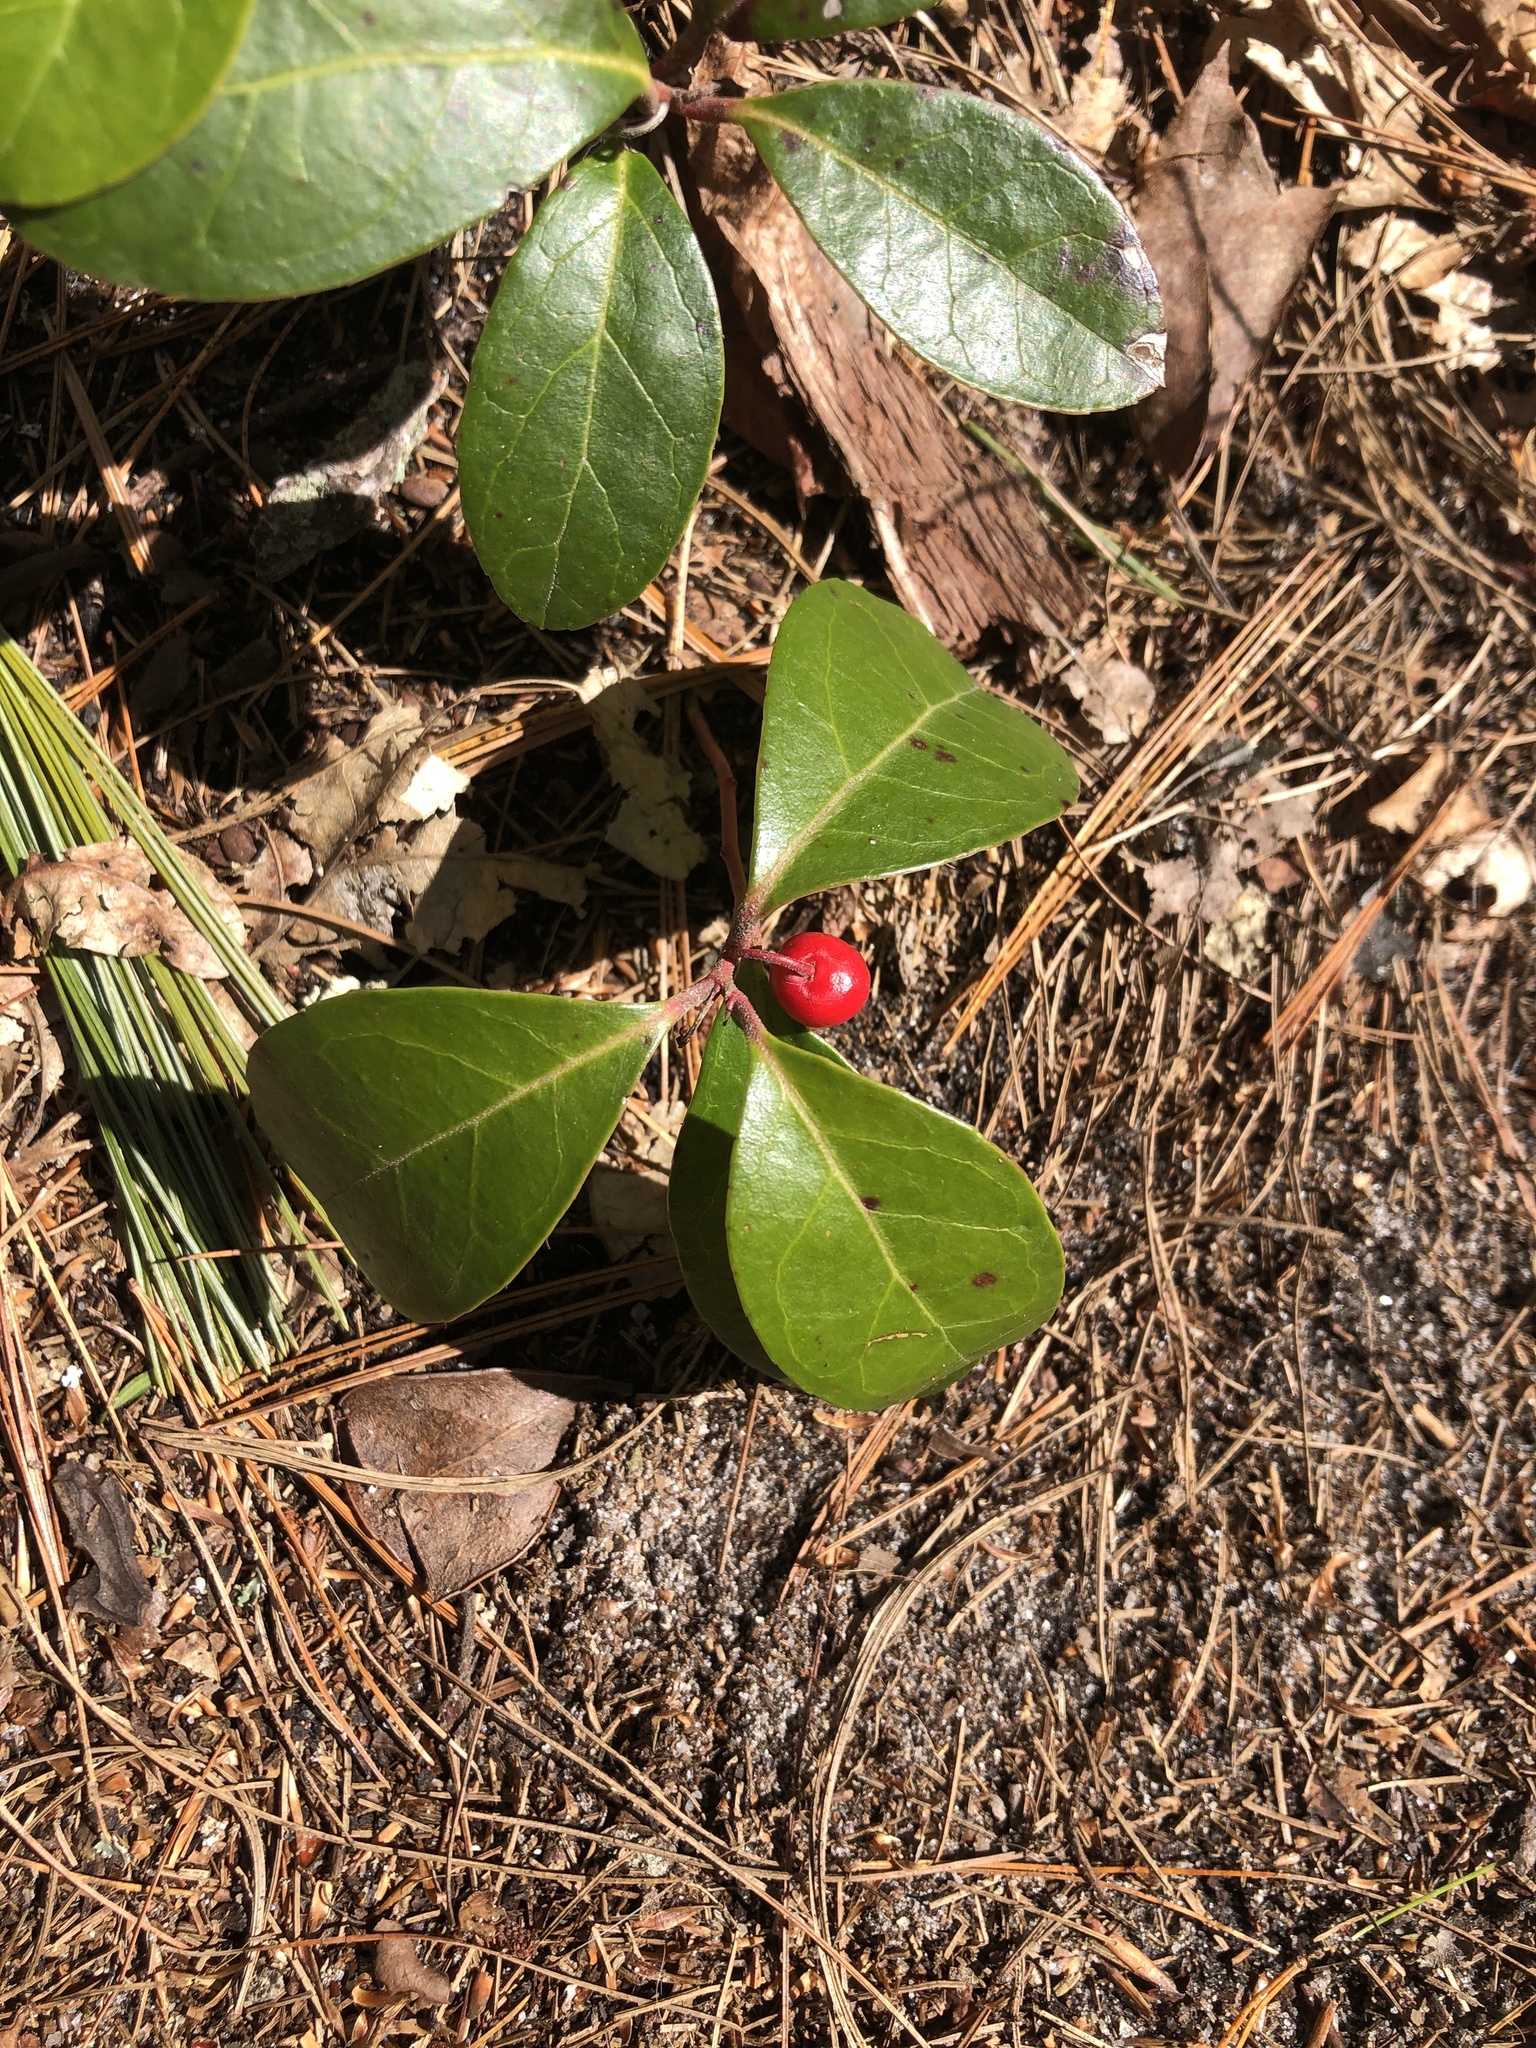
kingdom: Plantae
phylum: Tracheophyta
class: Magnoliopsida
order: Ericales
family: Ericaceae
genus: Gaultheria
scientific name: Gaultheria procumbens
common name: Checkerberry
